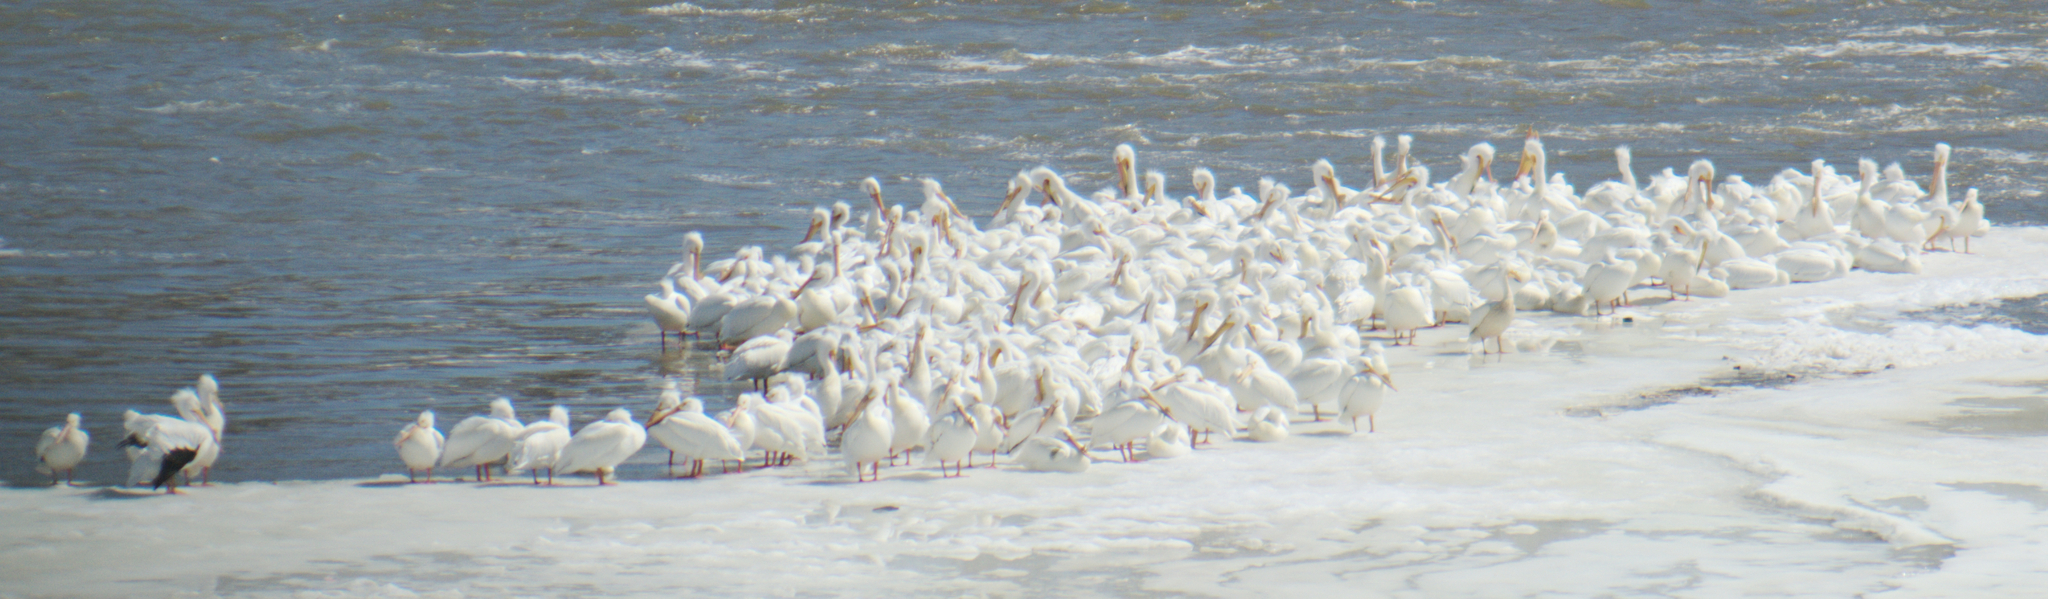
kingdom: Animalia
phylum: Chordata
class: Aves
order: Pelecaniformes
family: Pelecanidae
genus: Pelecanus
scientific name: Pelecanus erythrorhynchos
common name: American white pelican
